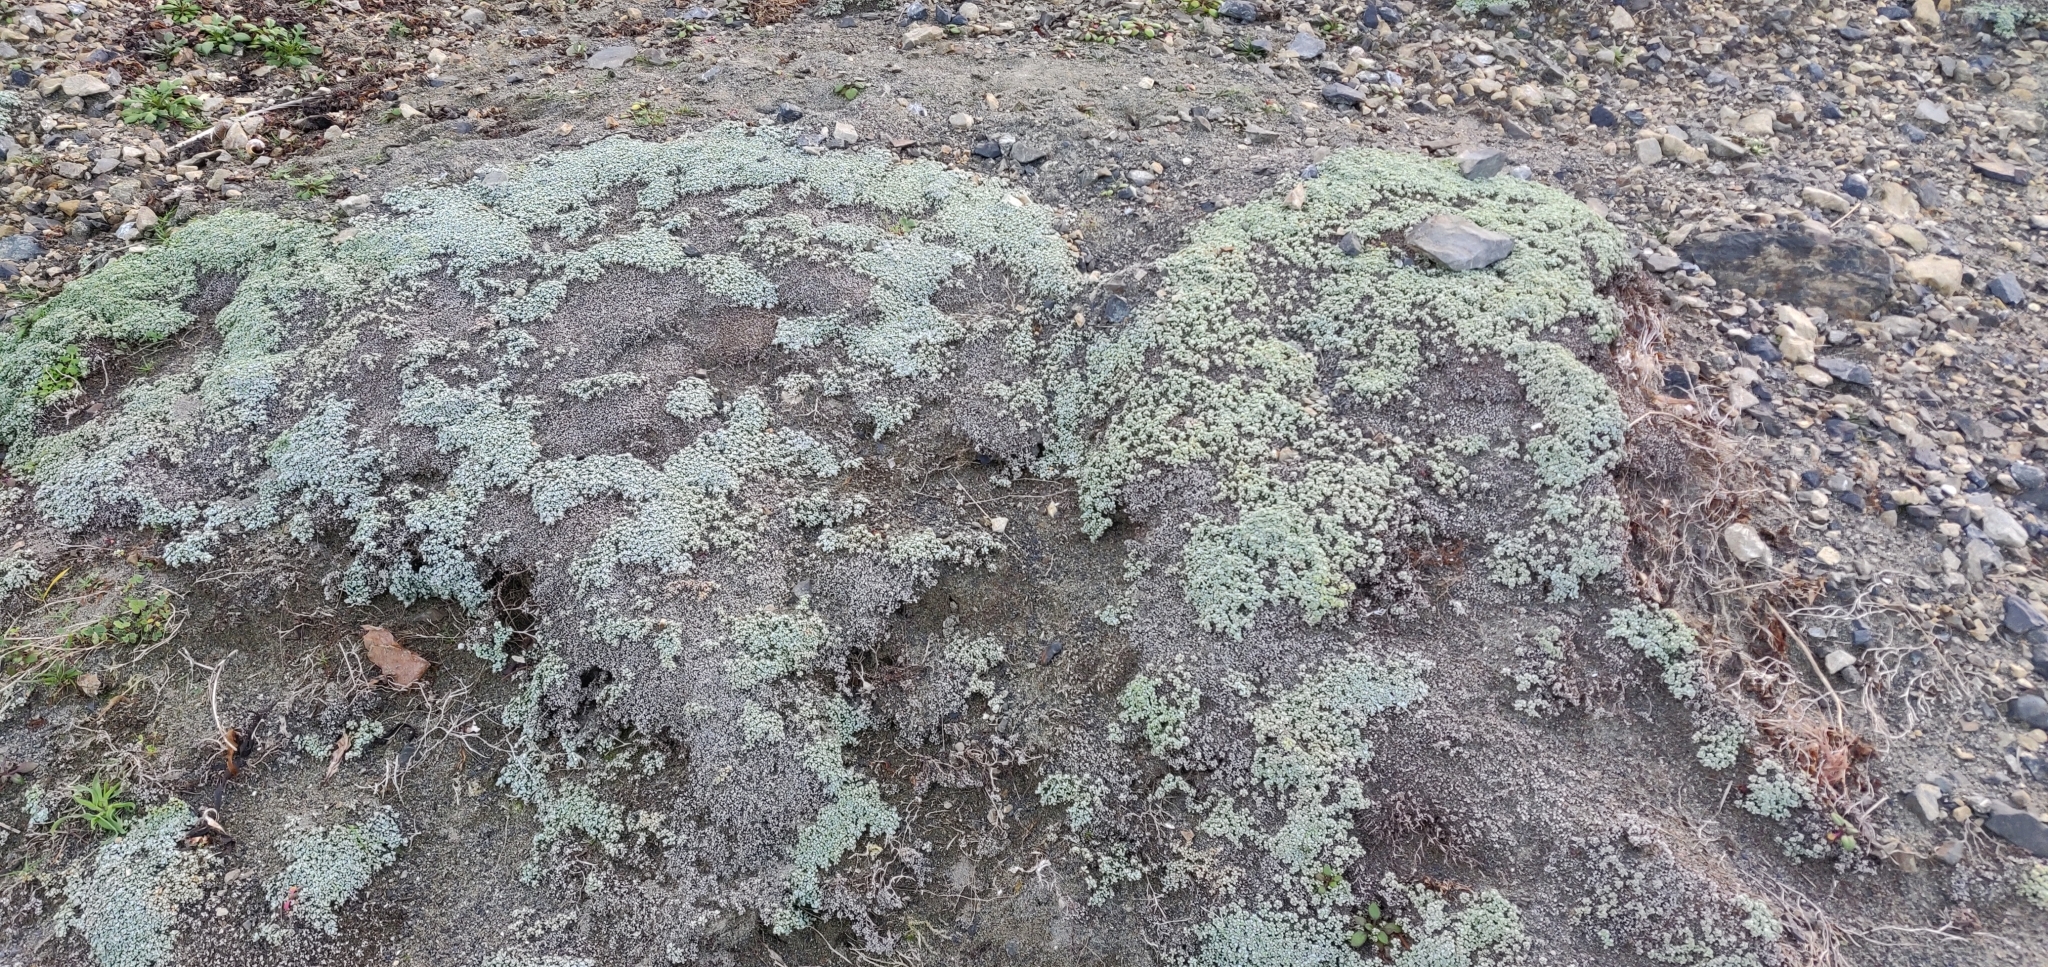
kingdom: Plantae
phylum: Tracheophyta
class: Magnoliopsida
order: Asterales
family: Asteraceae
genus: Raoulia
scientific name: Raoulia hookeri
